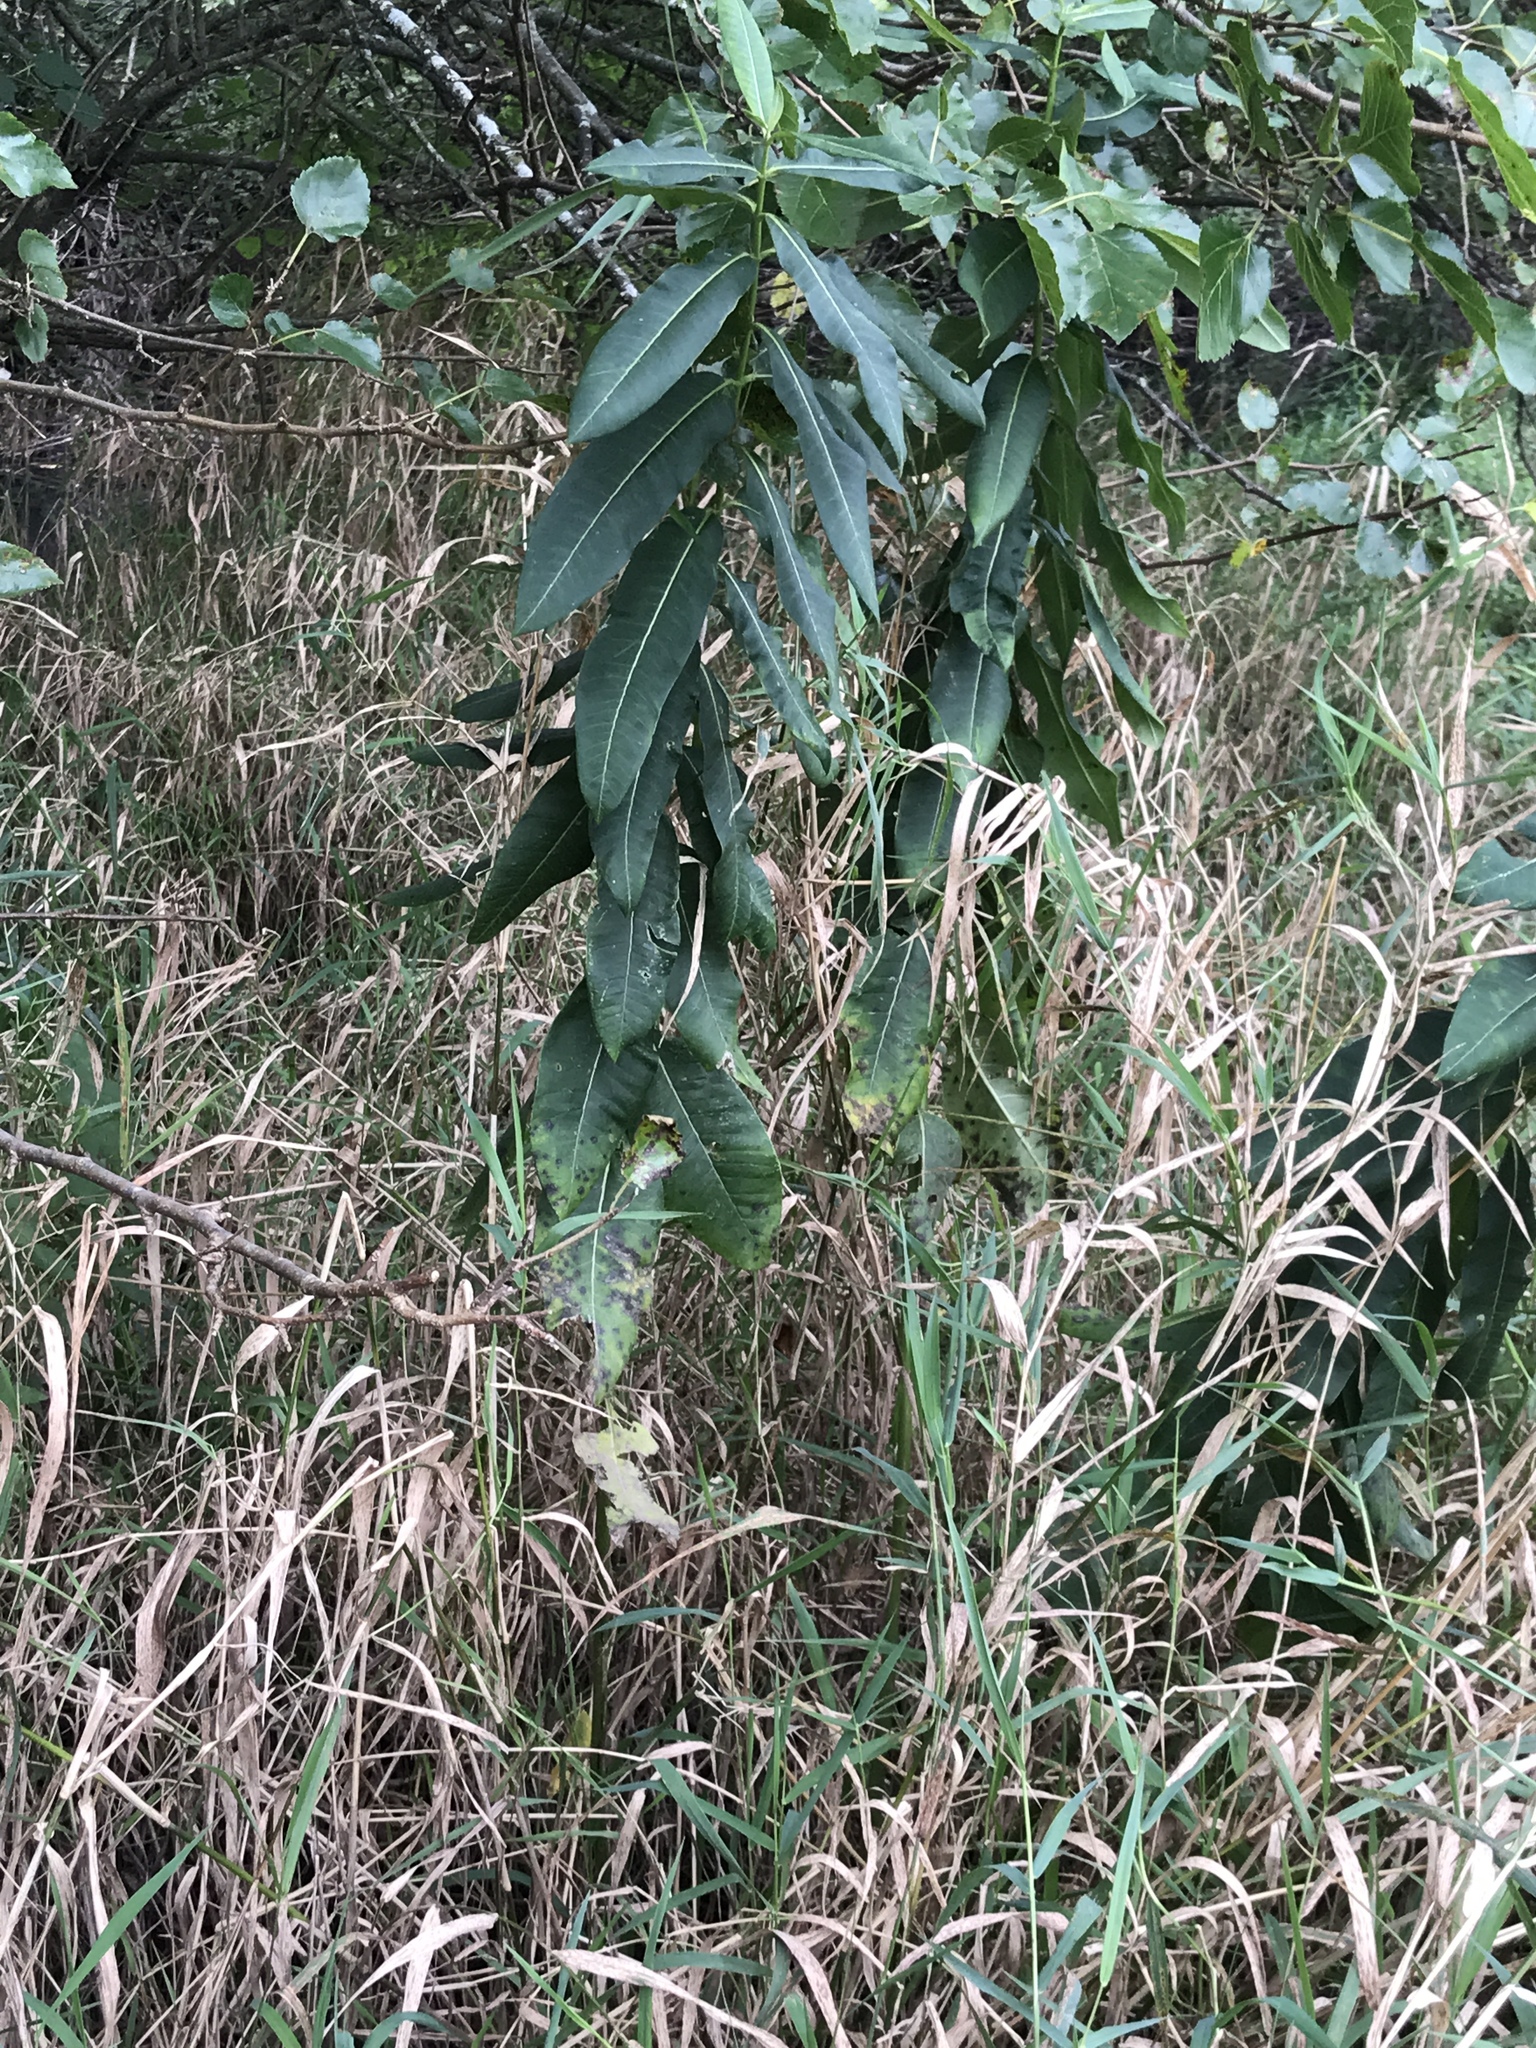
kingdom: Plantae
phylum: Tracheophyta
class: Magnoliopsida
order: Gentianales
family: Apocynaceae
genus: Asclepias
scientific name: Asclepias syriaca
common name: Common milkweed
